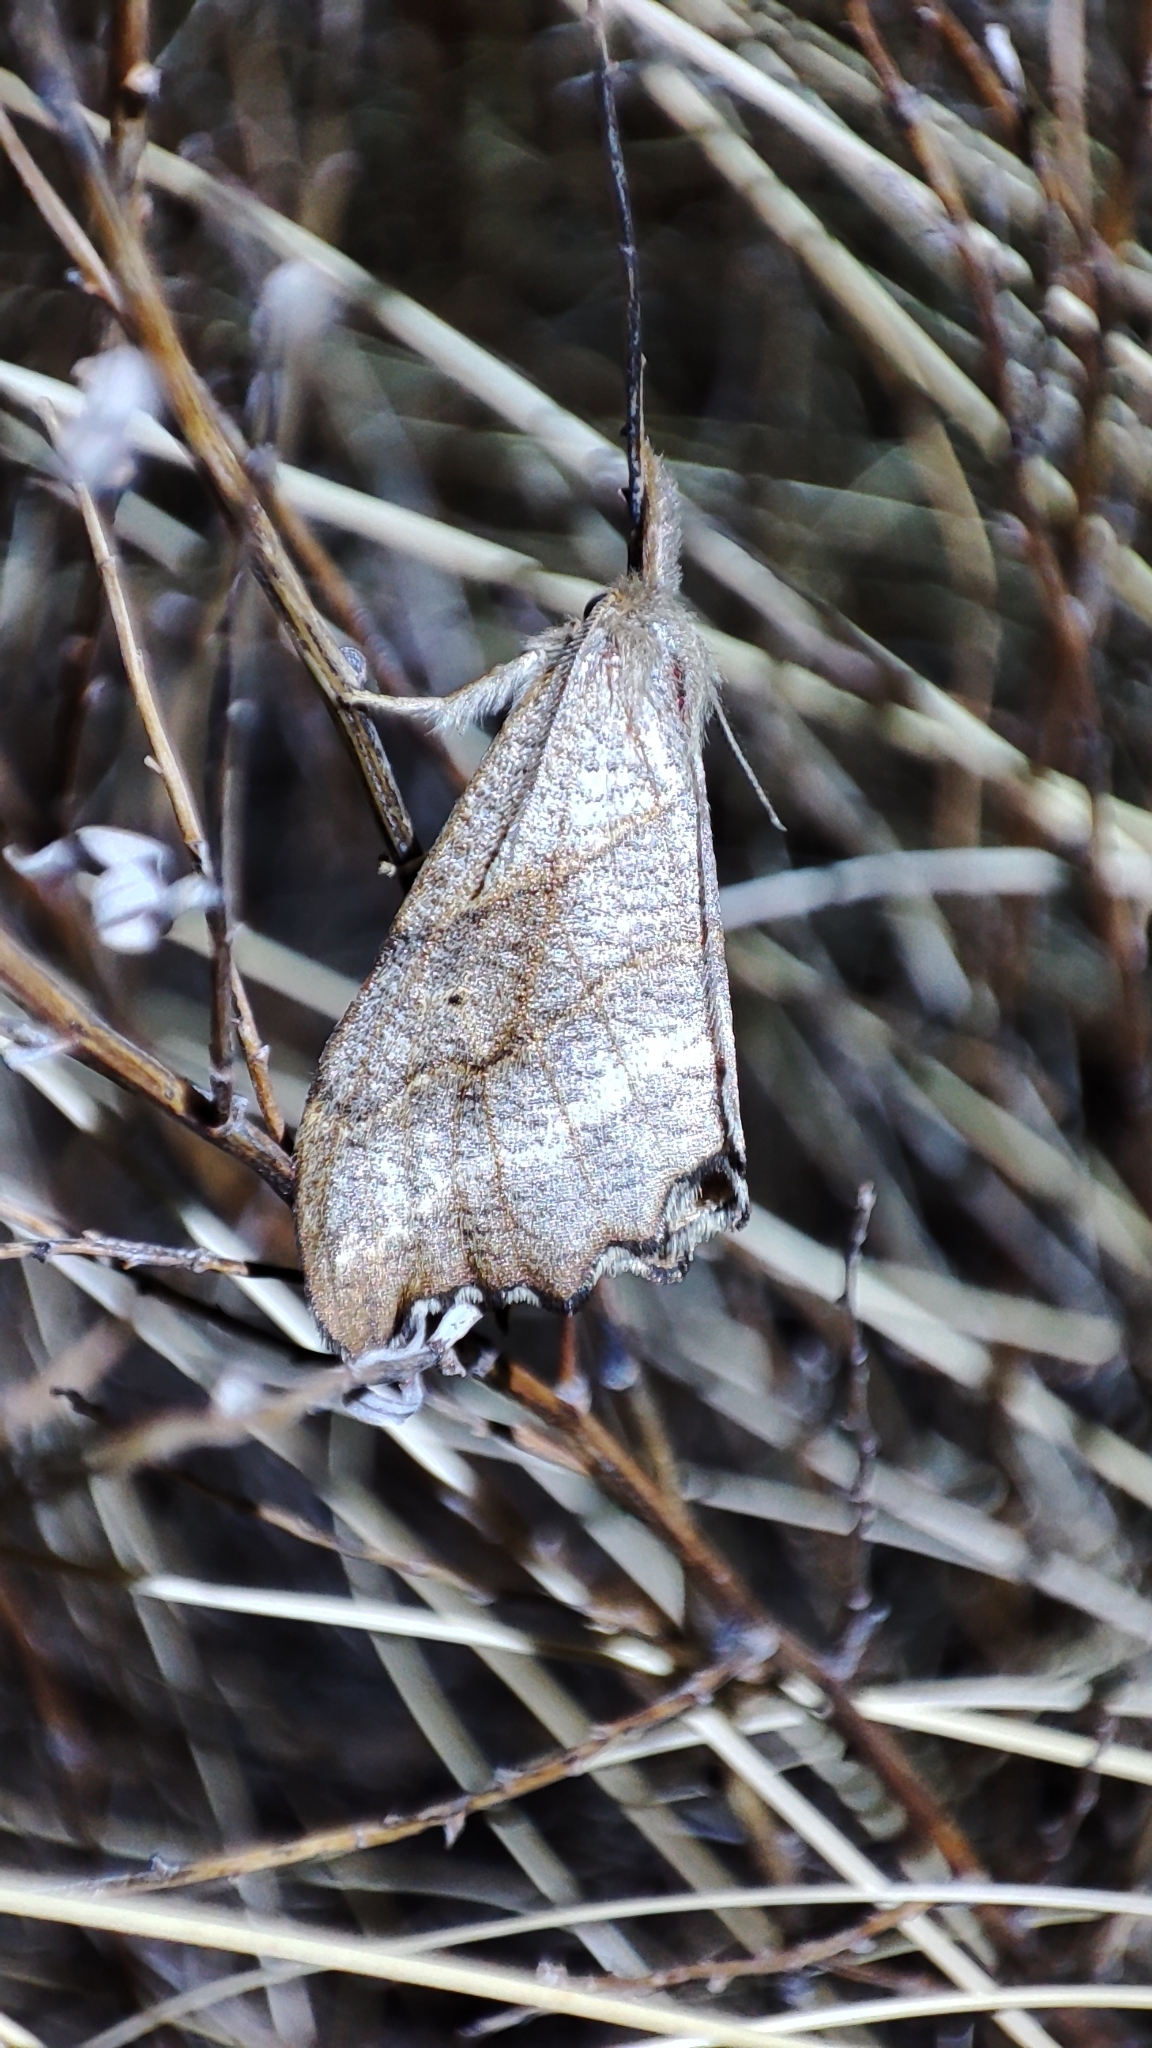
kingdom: Animalia
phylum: Arthropoda
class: Insecta
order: Lepidoptera
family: Drepanidae
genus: Falcaria
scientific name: Falcaria lacertinaria
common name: Scalloped hook-tip
